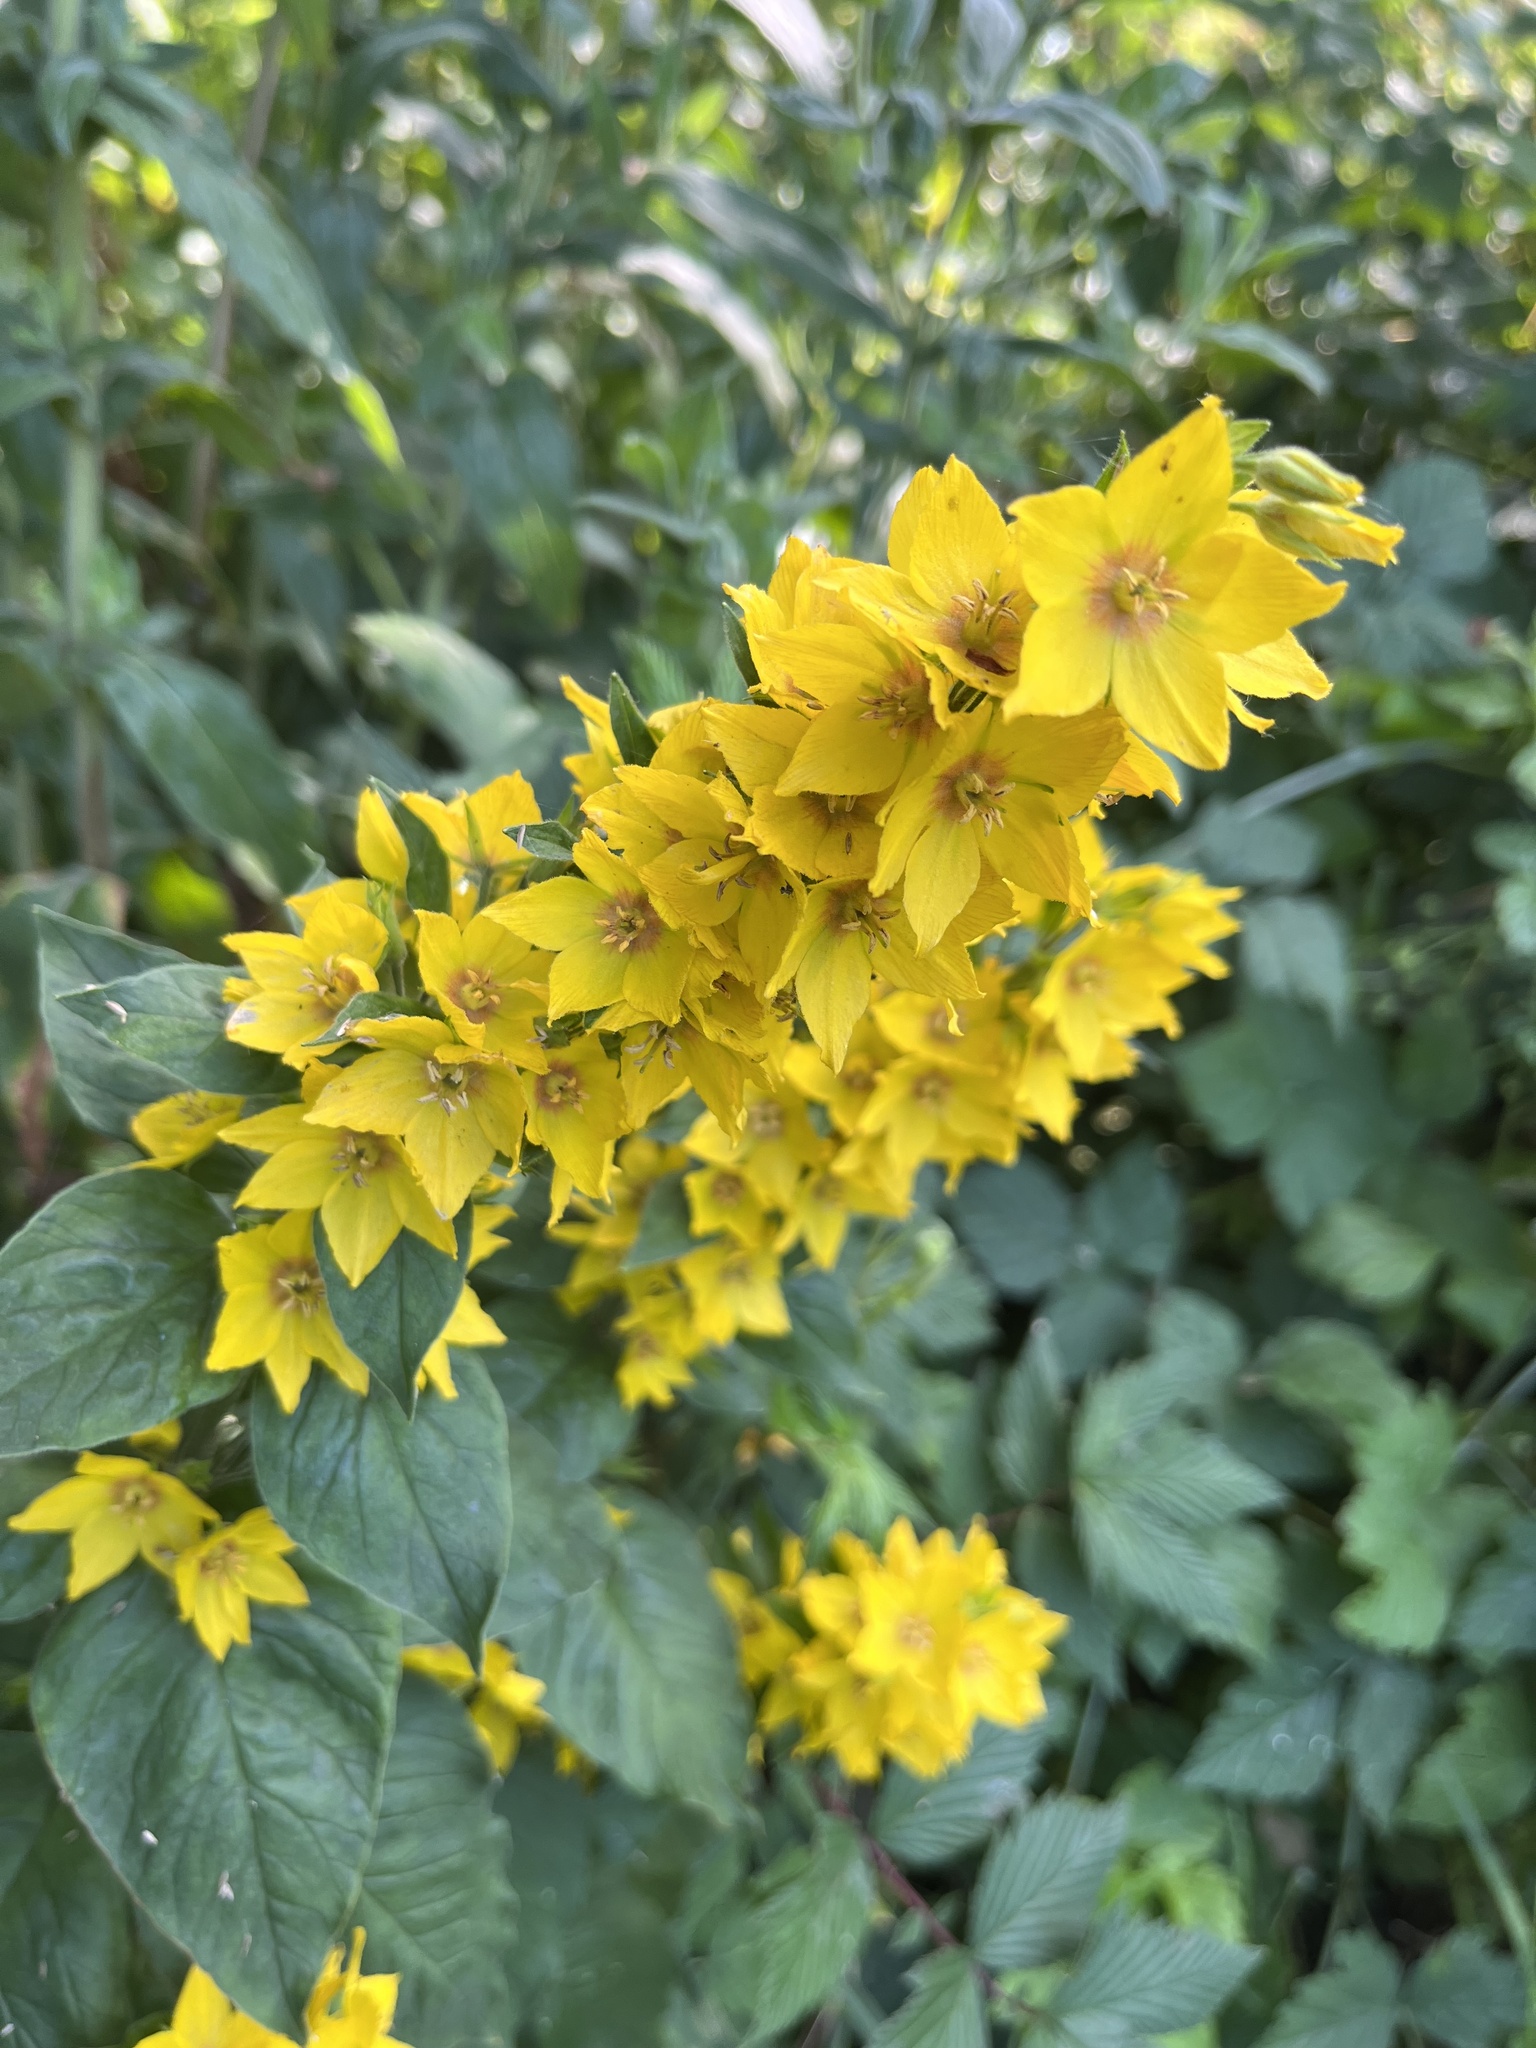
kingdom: Plantae
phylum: Tracheophyta
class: Magnoliopsida
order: Ericales
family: Primulaceae
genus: Lysimachia
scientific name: Lysimachia punctata
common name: Dotted loosestrife
